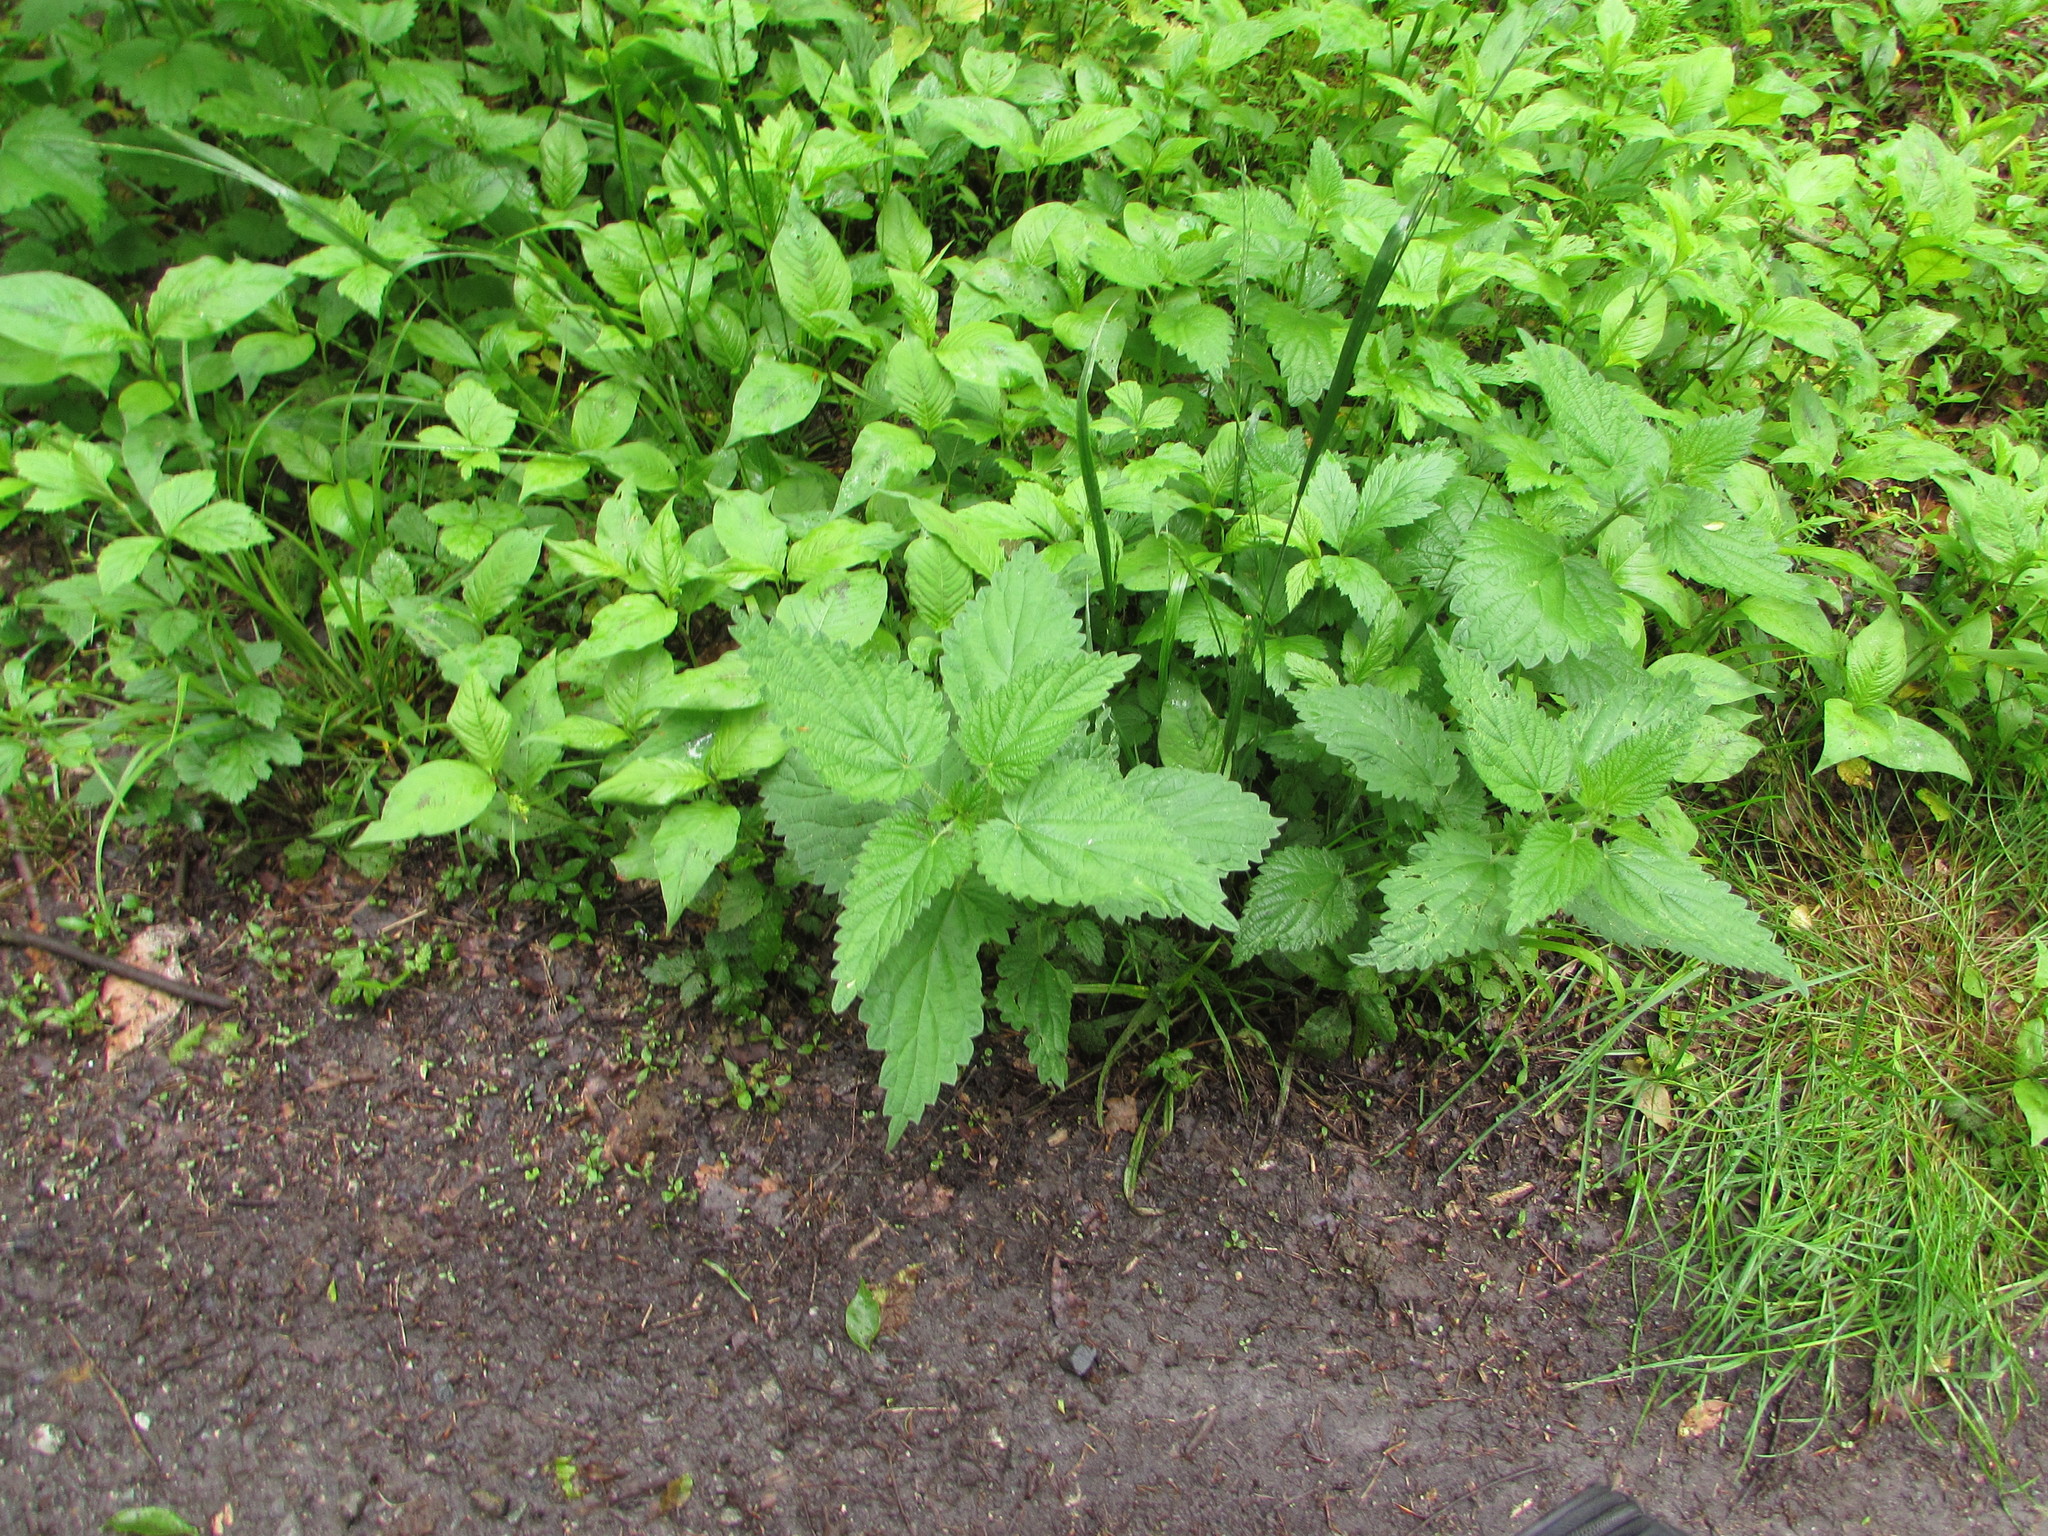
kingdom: Plantae
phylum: Tracheophyta
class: Magnoliopsida
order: Rosales
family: Urticaceae
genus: Urtica
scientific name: Urtica dioica
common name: Common nettle
